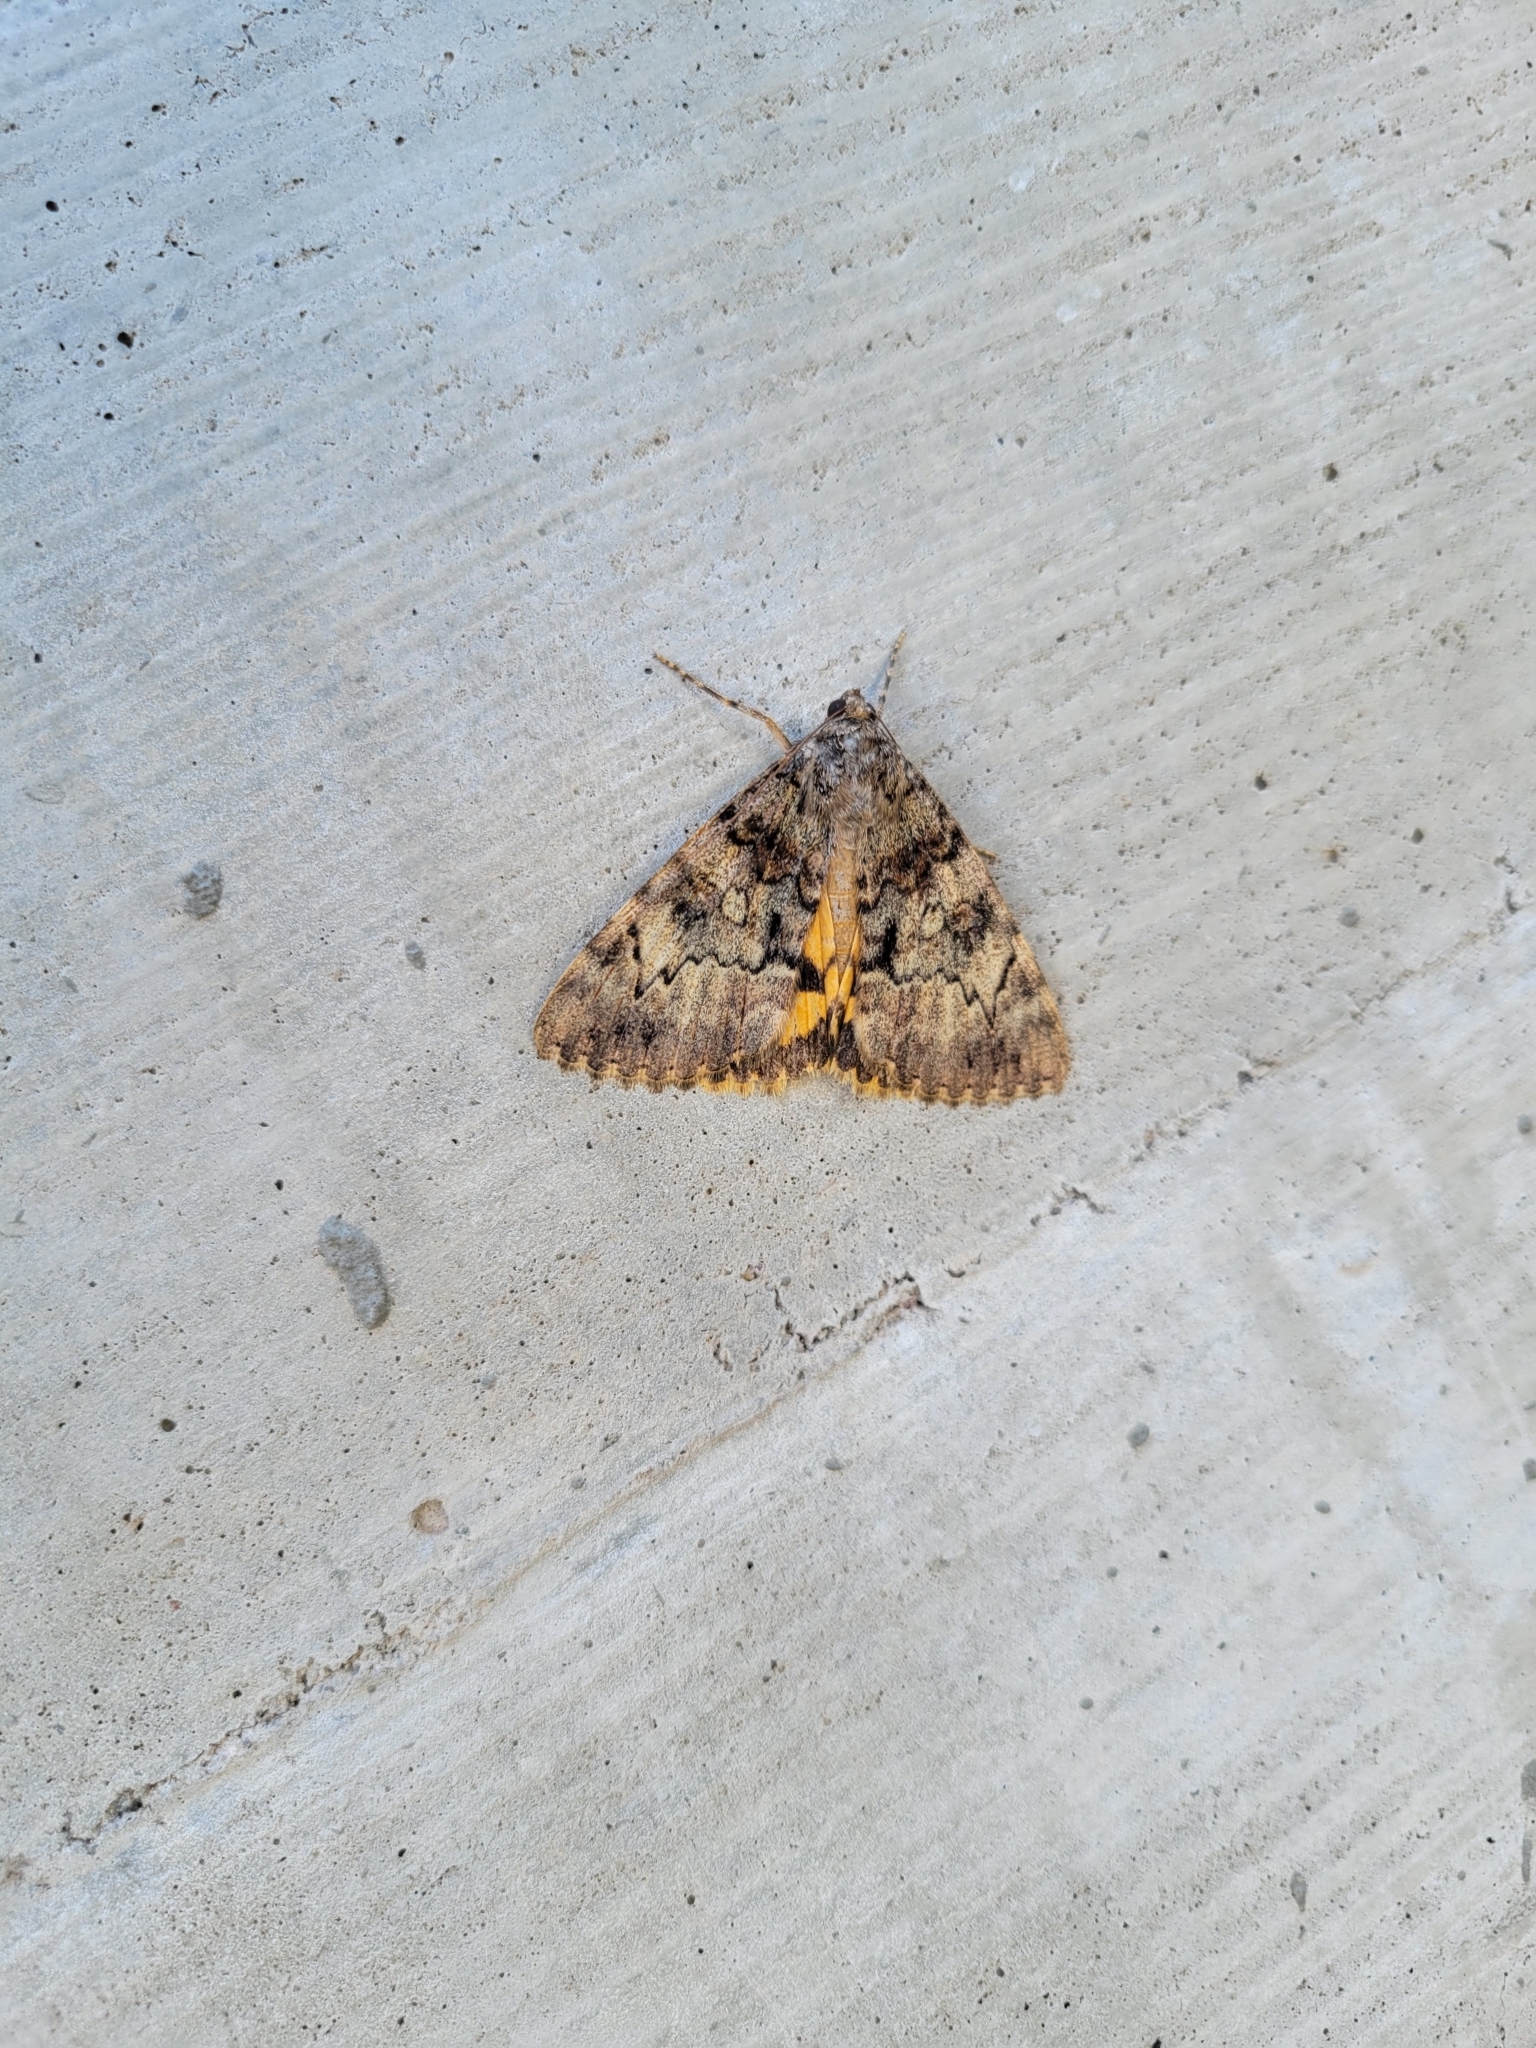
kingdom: Animalia
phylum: Arthropoda
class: Insecta
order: Lepidoptera
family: Erebidae
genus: Catocala
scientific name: Catocala desdemona
